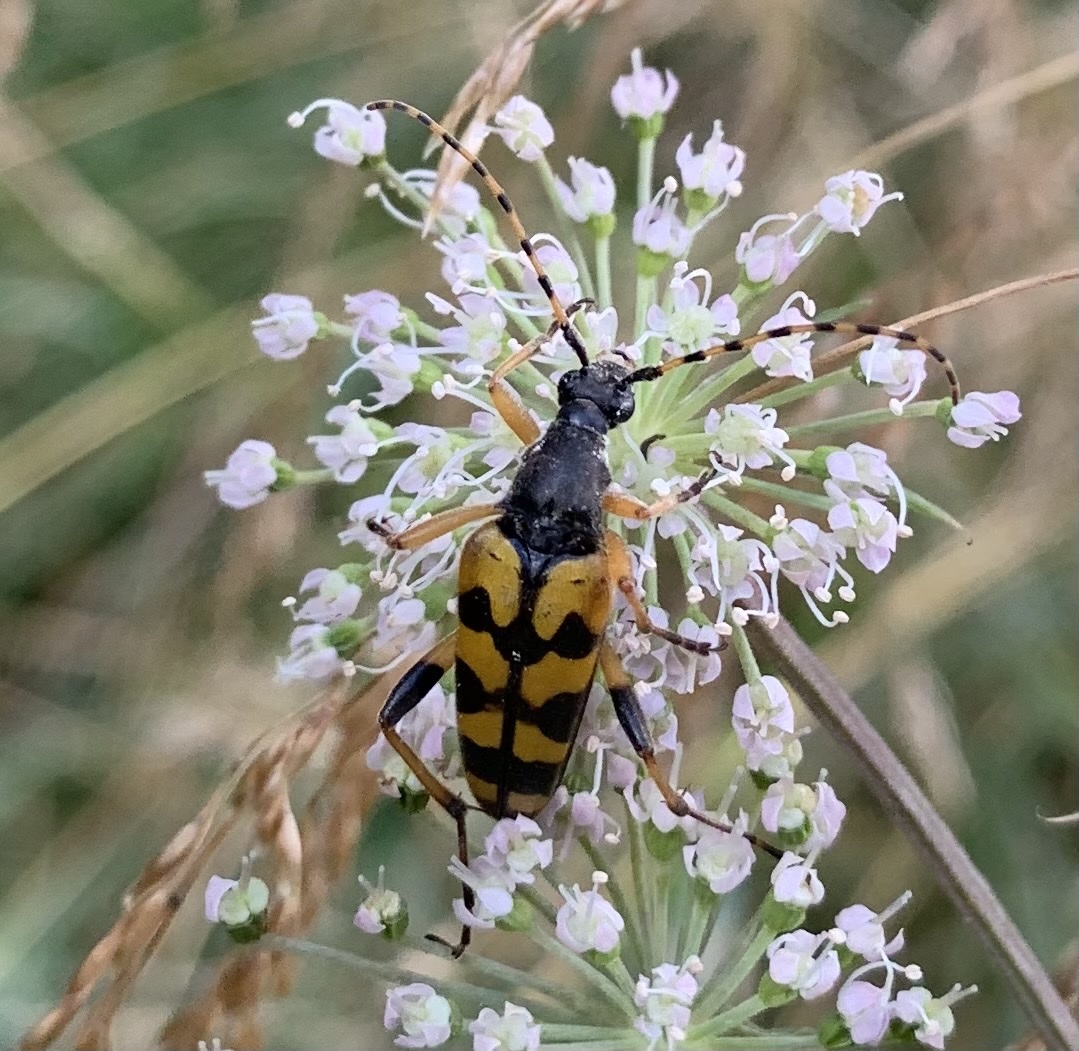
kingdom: Animalia
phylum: Arthropoda
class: Insecta
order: Coleoptera
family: Cerambycidae
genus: Rutpela
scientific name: Rutpela maculata
